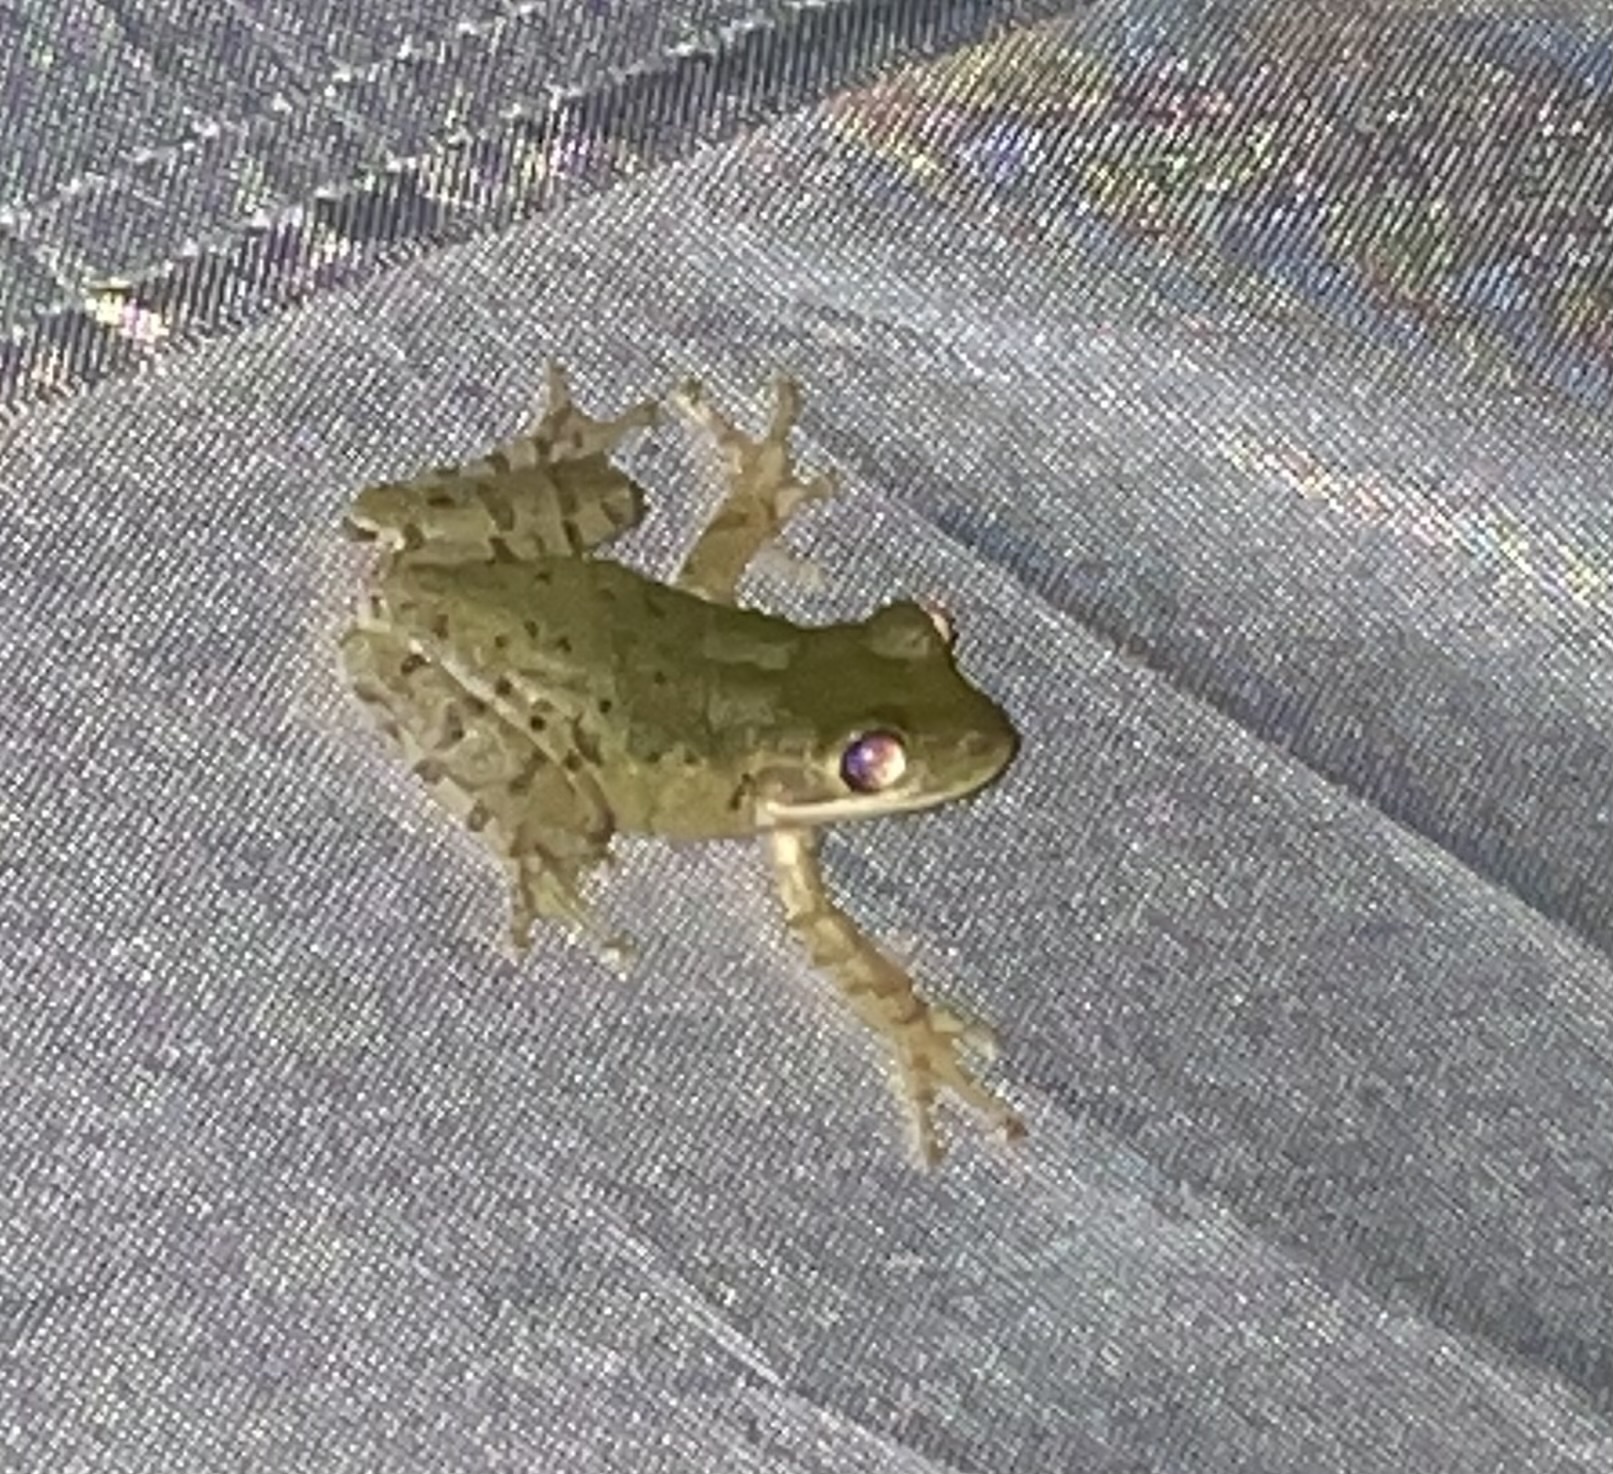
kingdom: Animalia
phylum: Chordata
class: Amphibia
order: Anura
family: Hylidae
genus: Osteopilus
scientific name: Osteopilus septentrionalis
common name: Cuban treefrog
